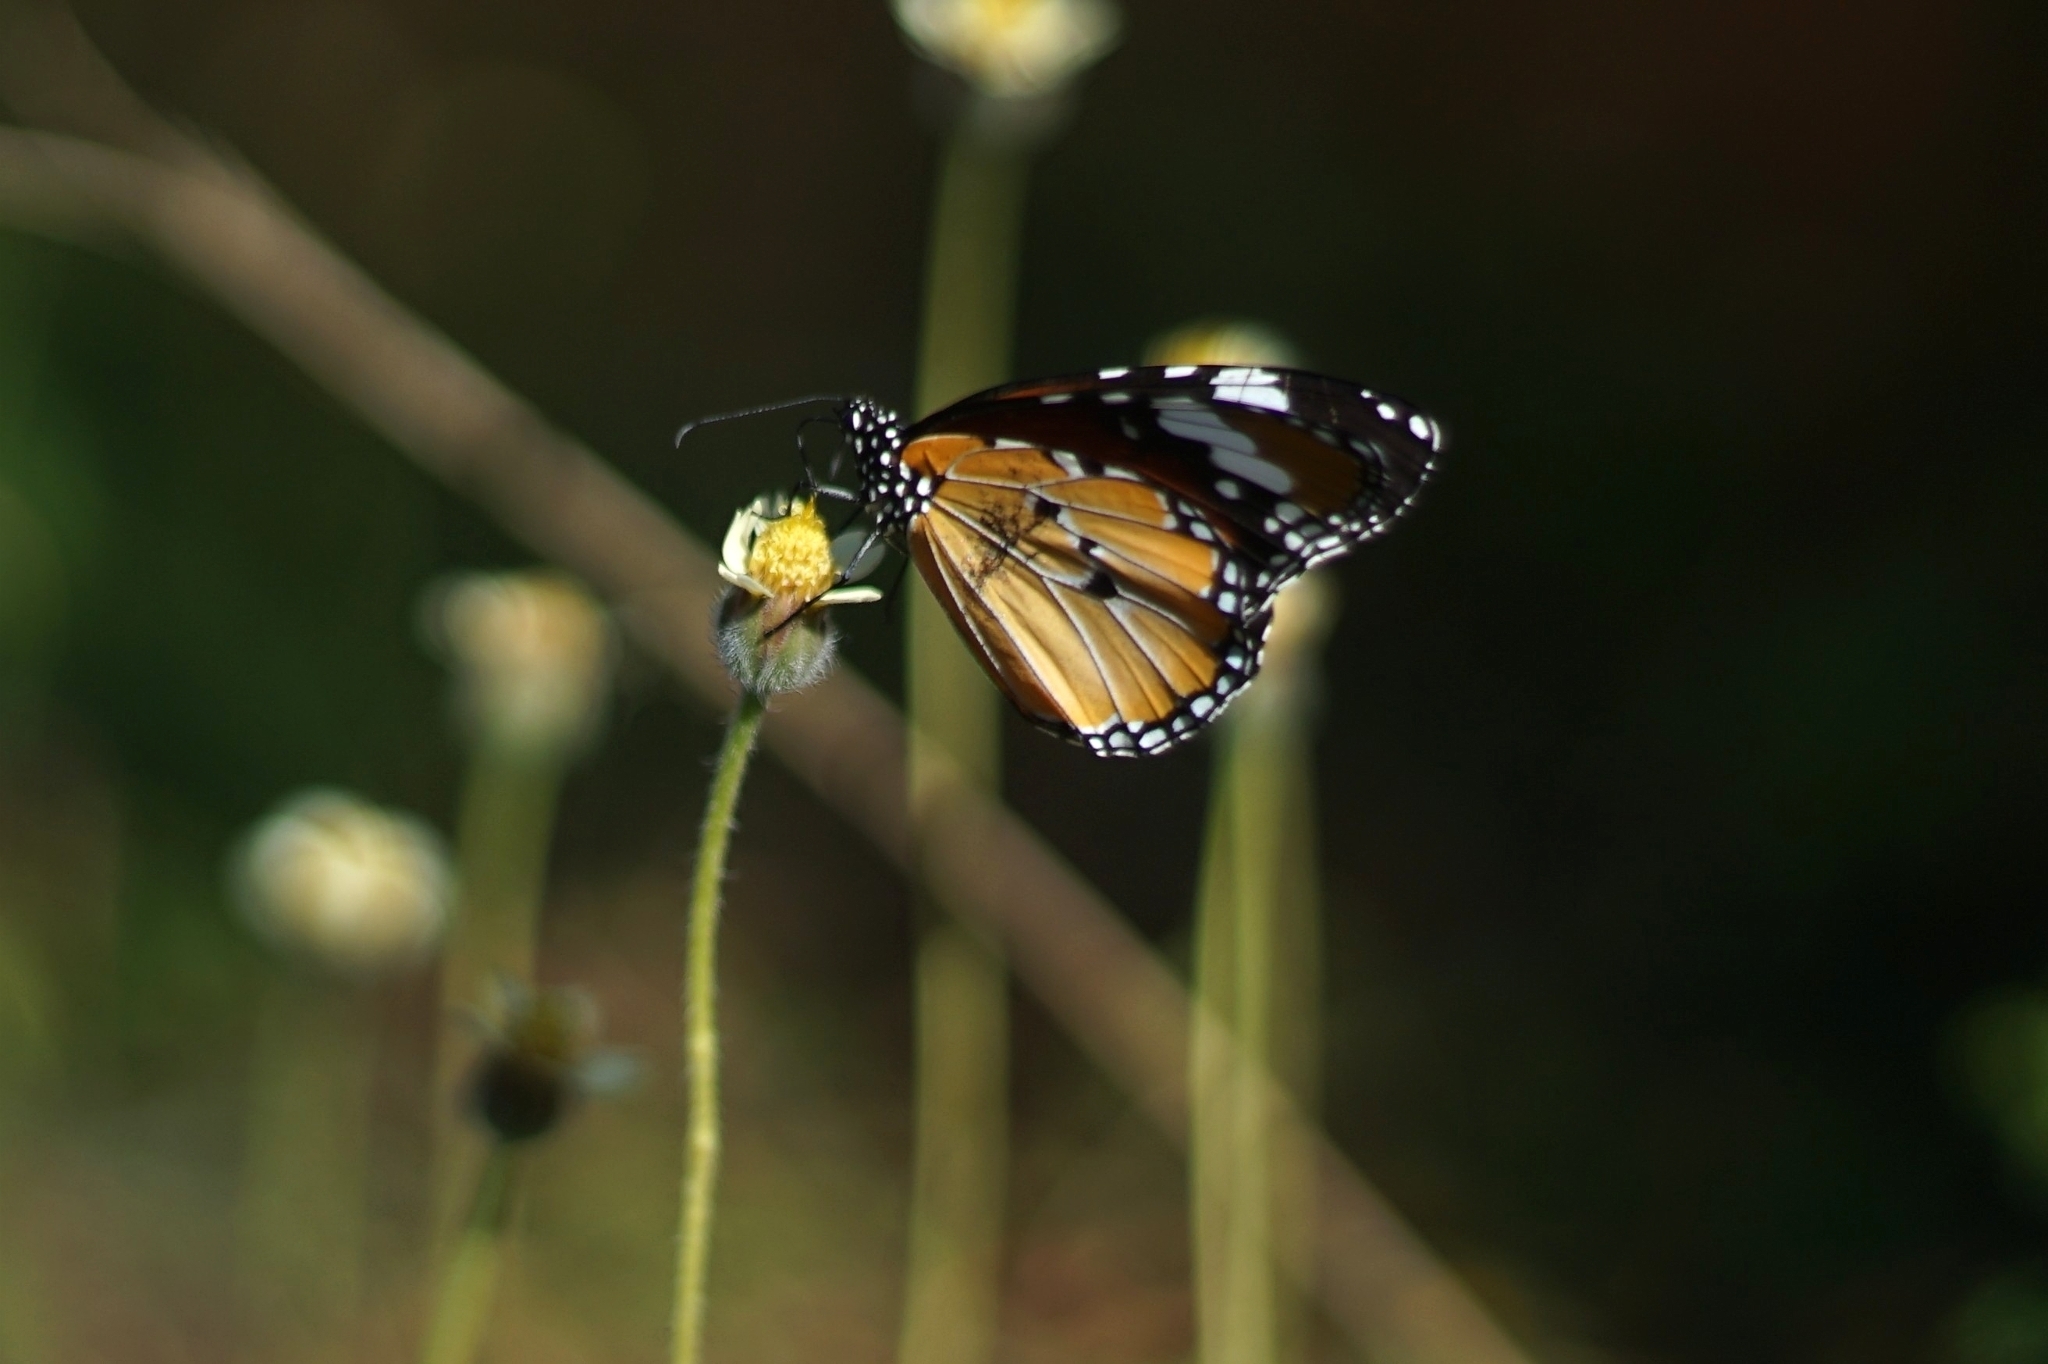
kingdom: Animalia
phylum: Arthropoda
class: Insecta
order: Lepidoptera
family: Nymphalidae
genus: Danaus
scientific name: Danaus chrysippus
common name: Plain tiger
